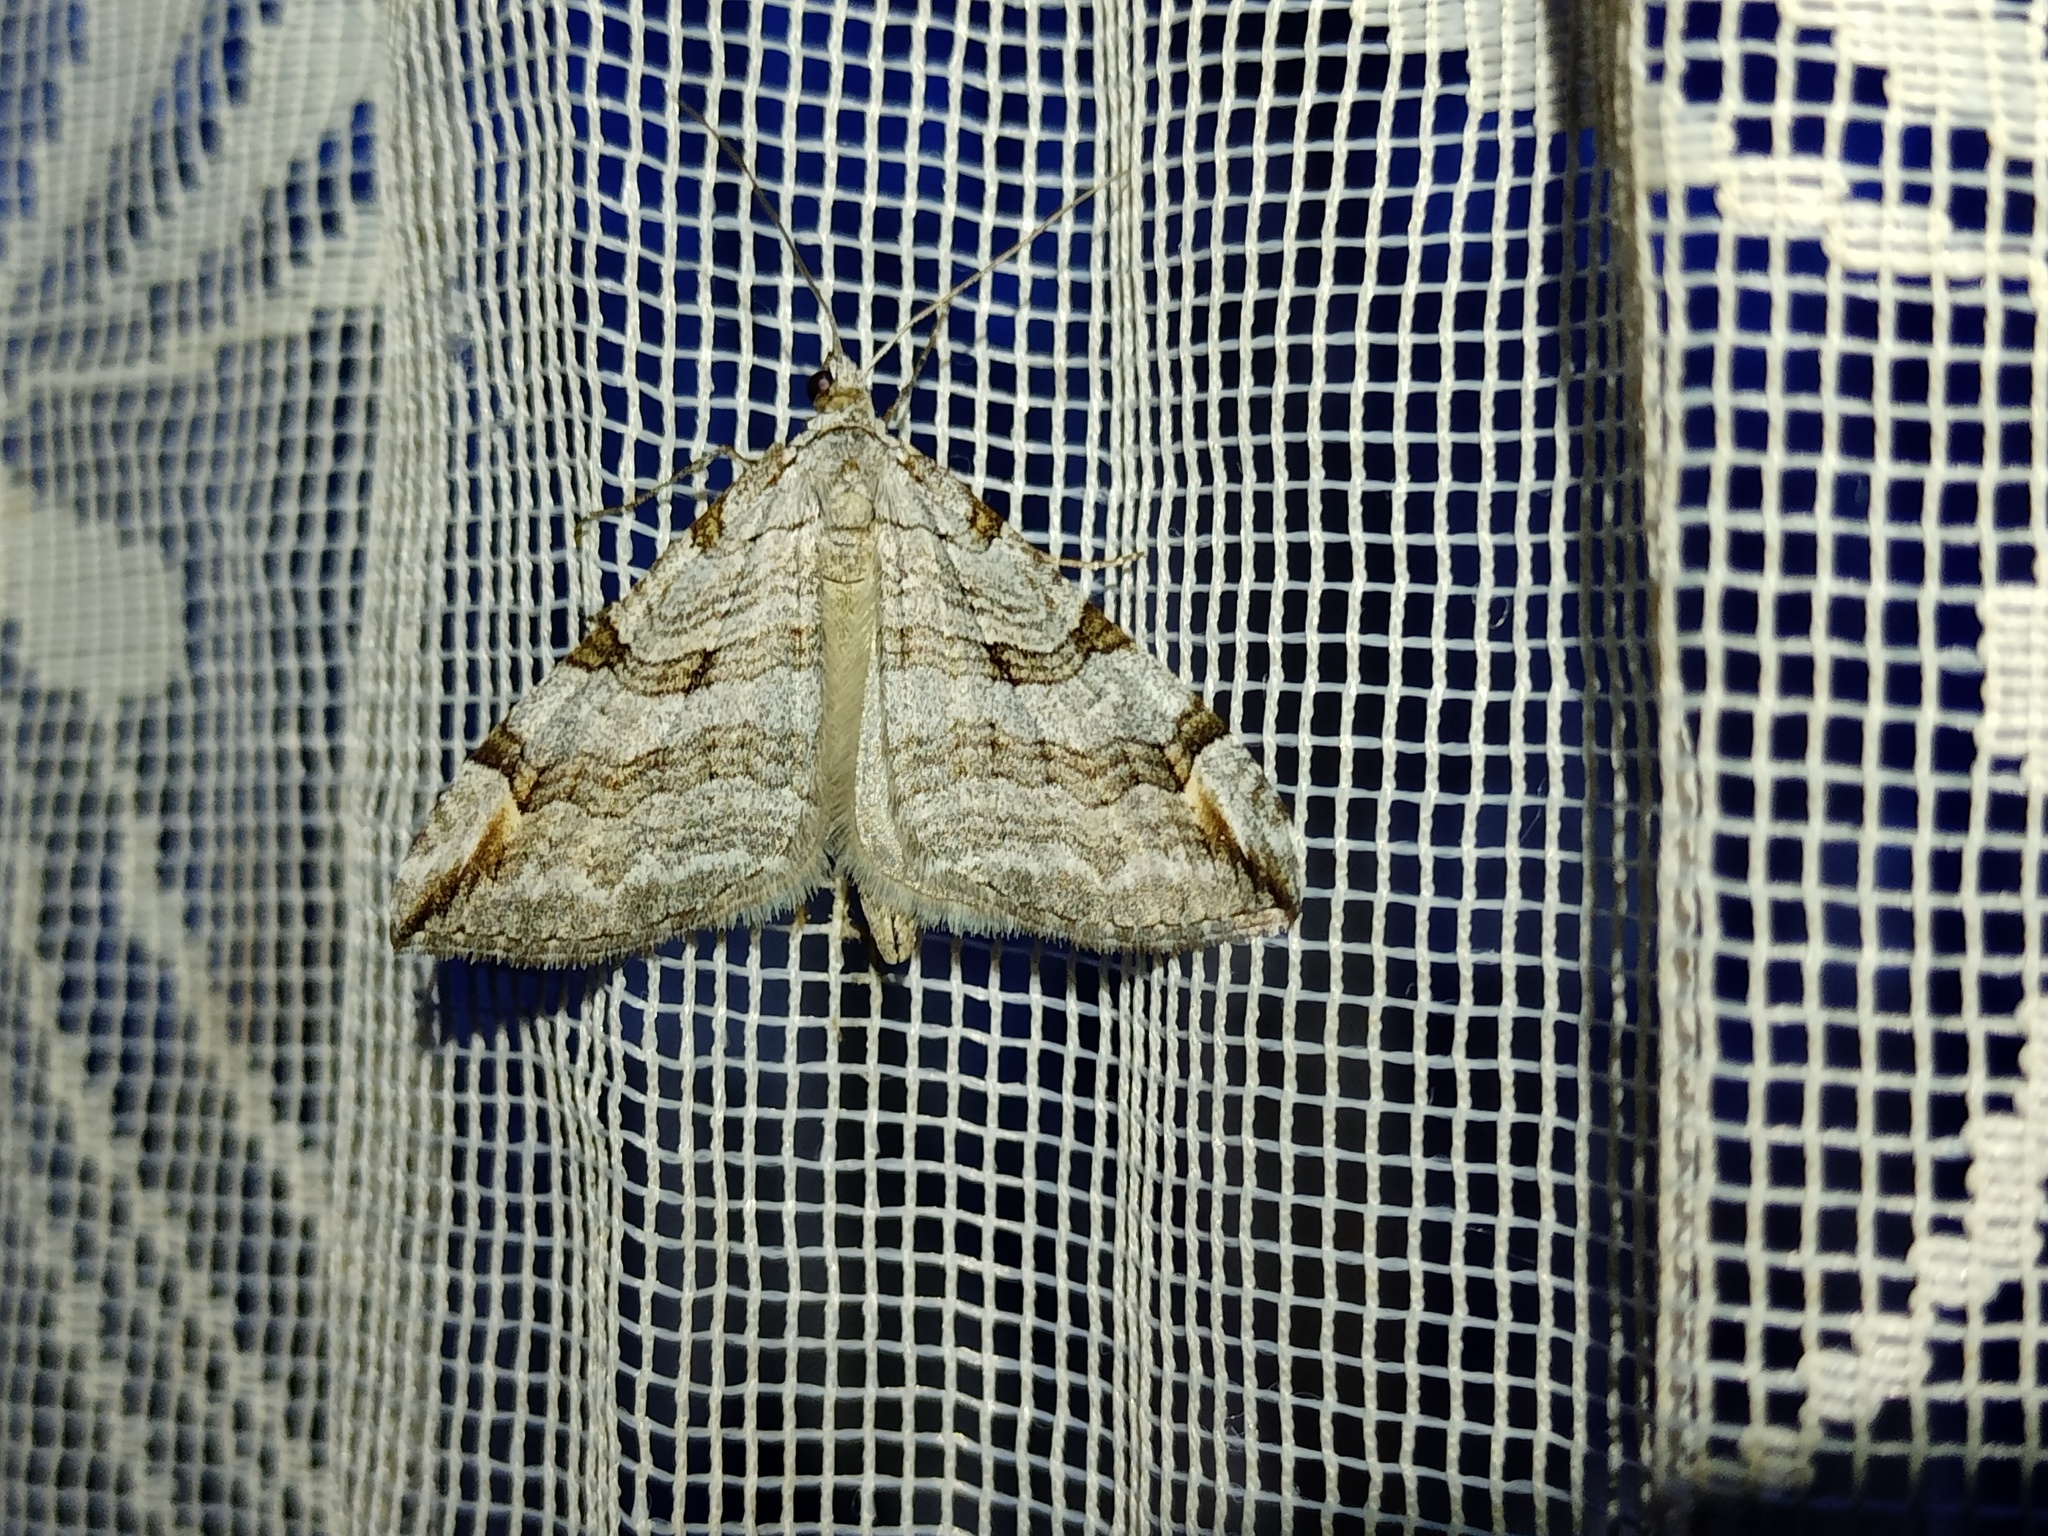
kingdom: Animalia
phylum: Arthropoda
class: Insecta
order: Lepidoptera
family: Geometridae
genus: Aplocera
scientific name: Aplocera plagiata
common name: Treble-bar
